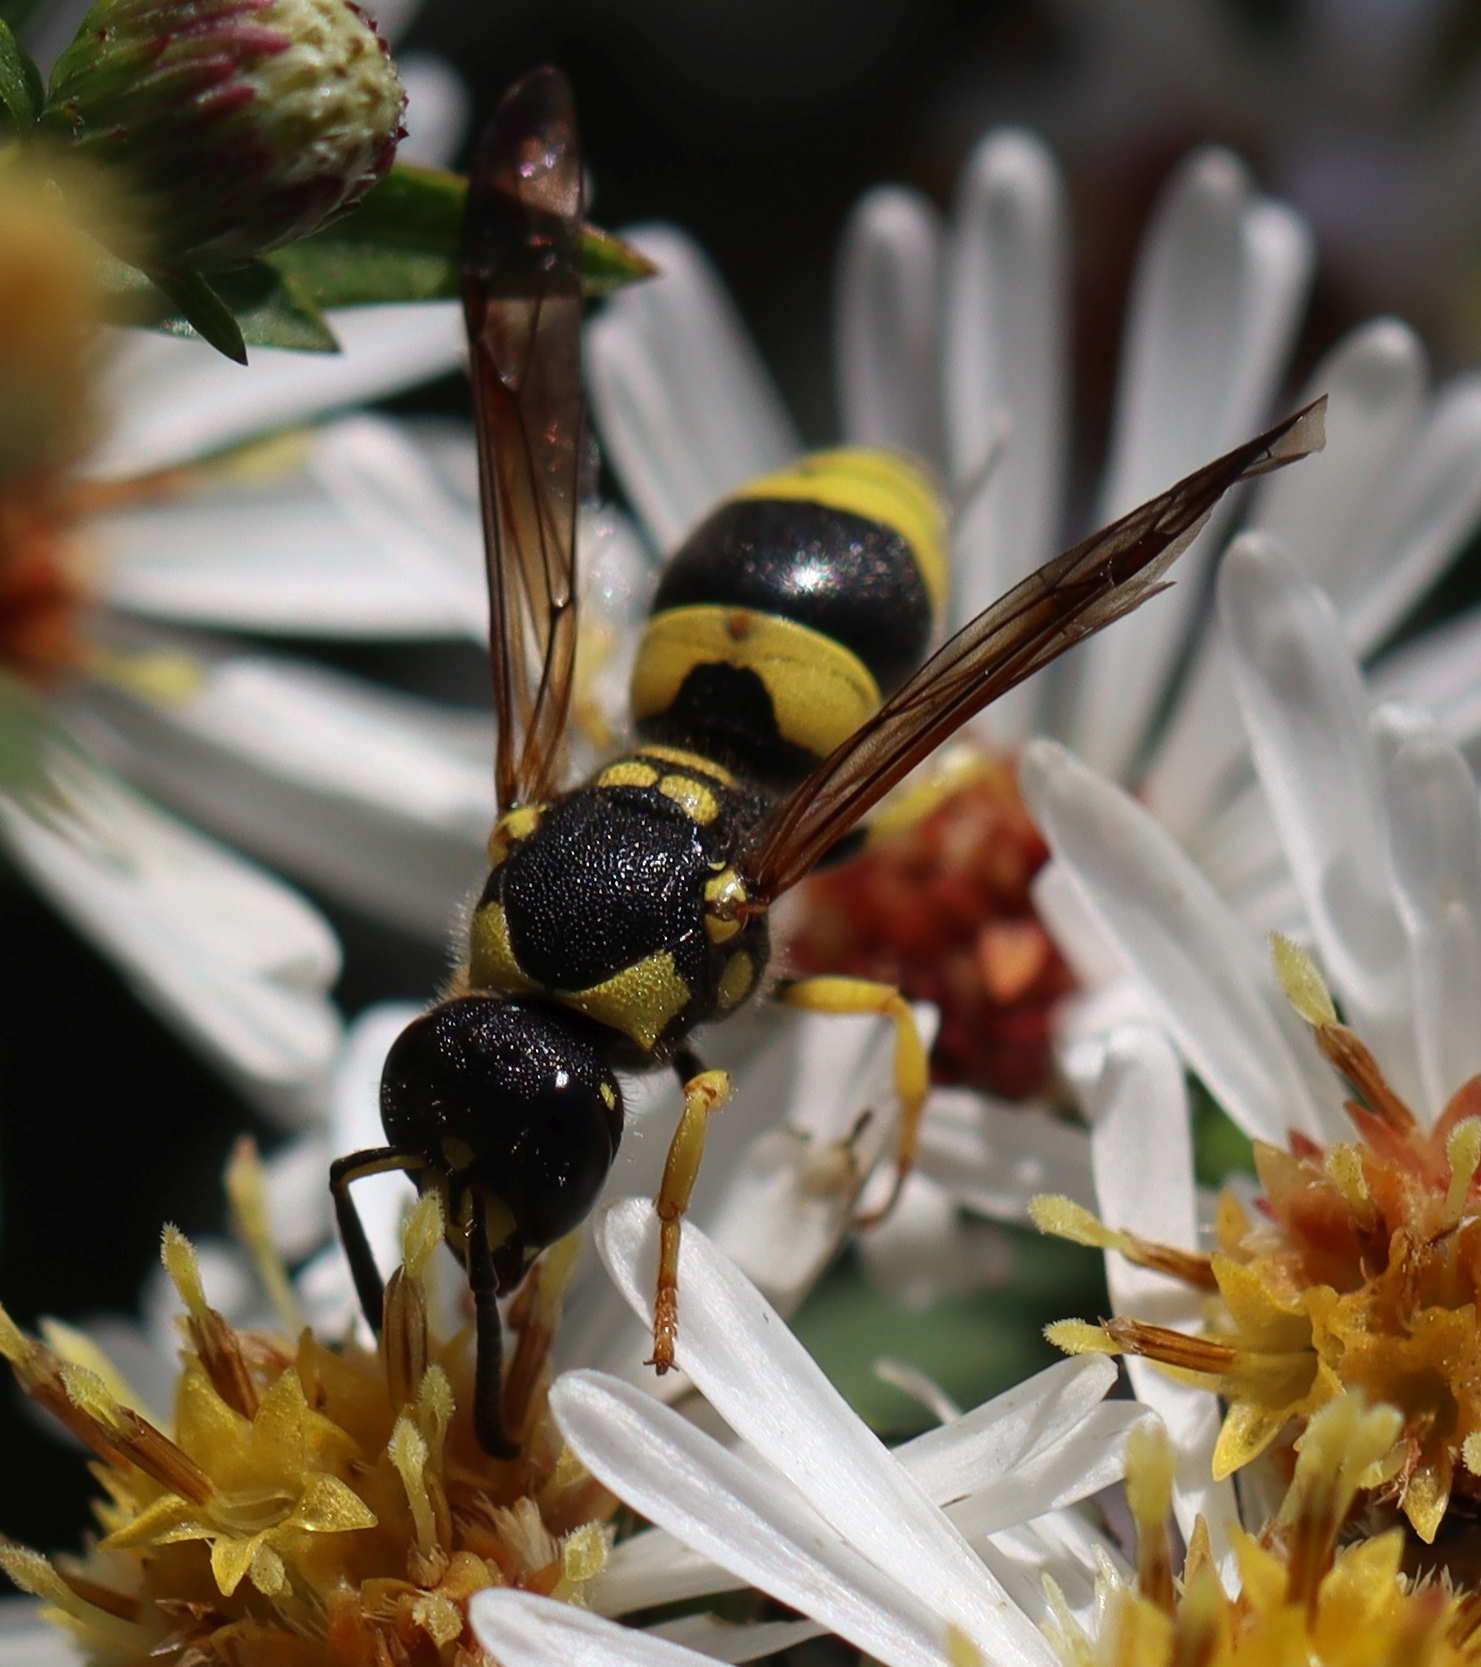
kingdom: Animalia
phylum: Arthropoda
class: Insecta
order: Hymenoptera
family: Vespidae
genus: Ancistrocerus
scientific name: Ancistrocerus gazella
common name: European tube wasp
